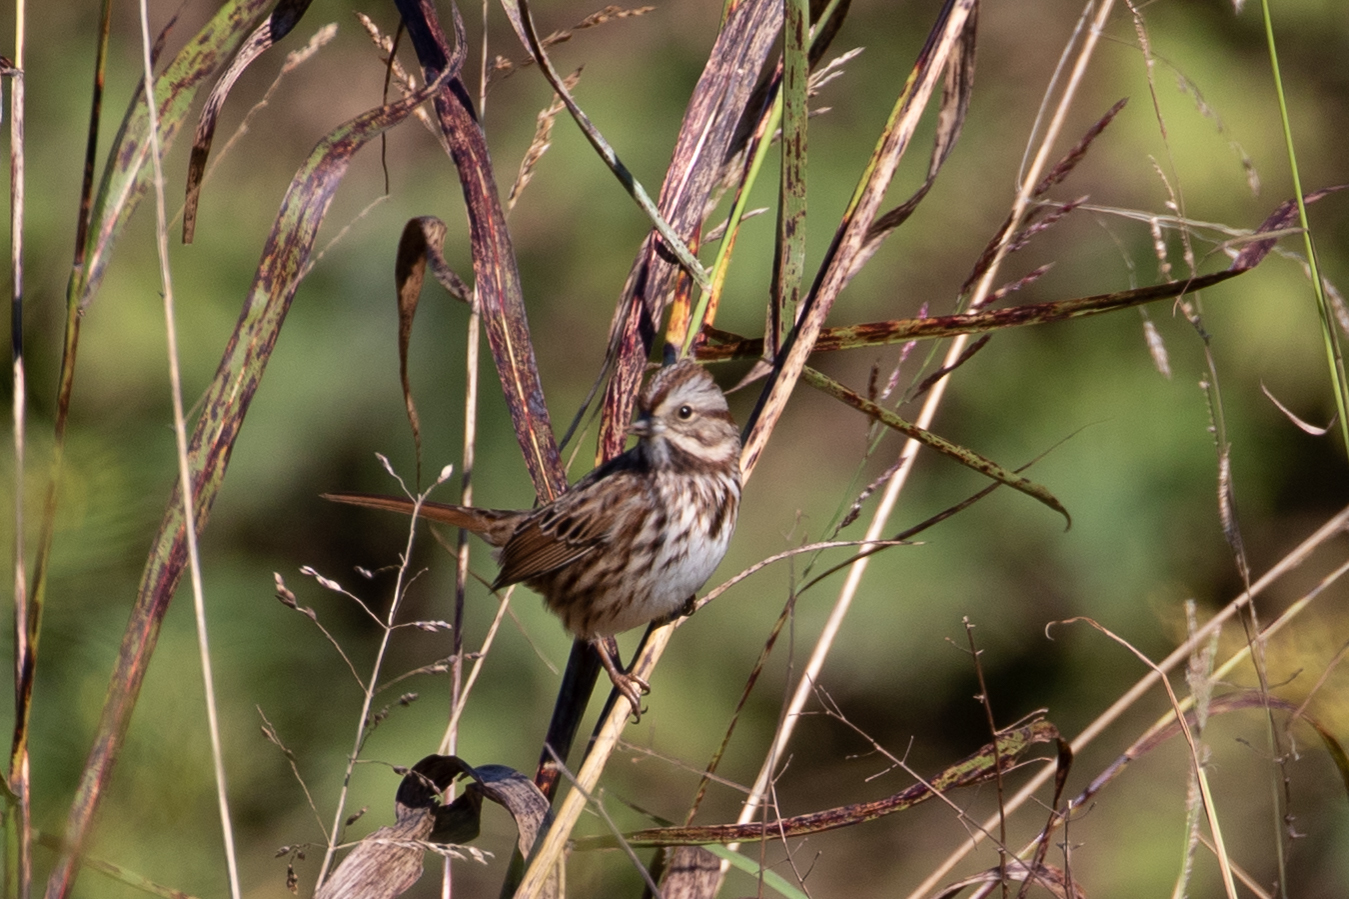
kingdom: Animalia
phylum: Chordata
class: Aves
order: Passeriformes
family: Passerellidae
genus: Melospiza
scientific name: Melospiza melodia
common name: Song sparrow
